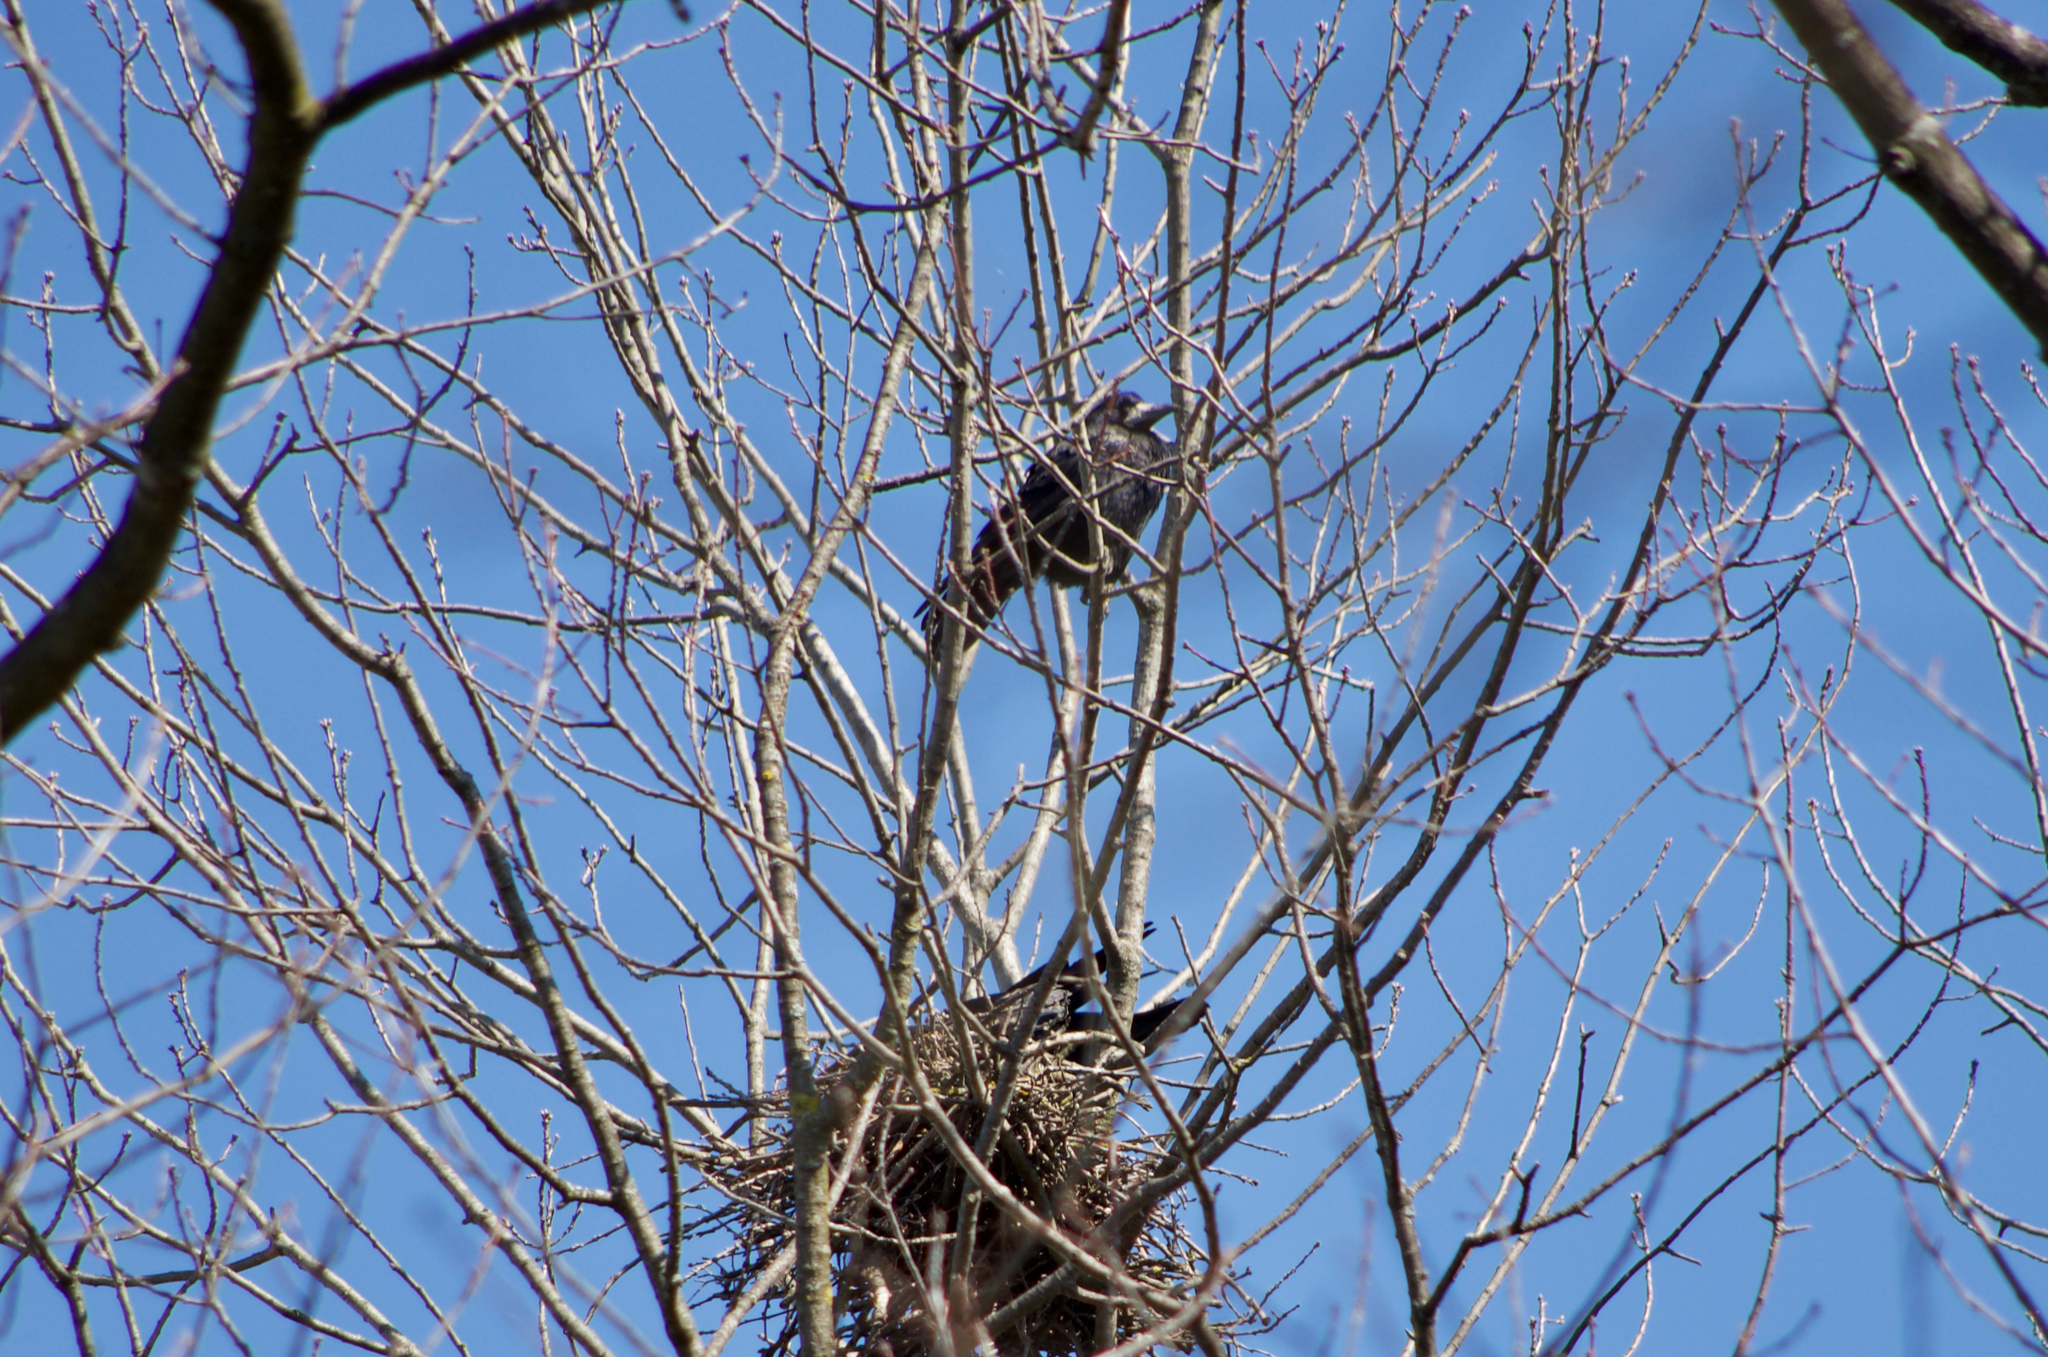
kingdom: Animalia
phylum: Chordata
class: Aves
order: Passeriformes
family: Corvidae
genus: Corvus
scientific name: Corvus frugilegus
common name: Rook
